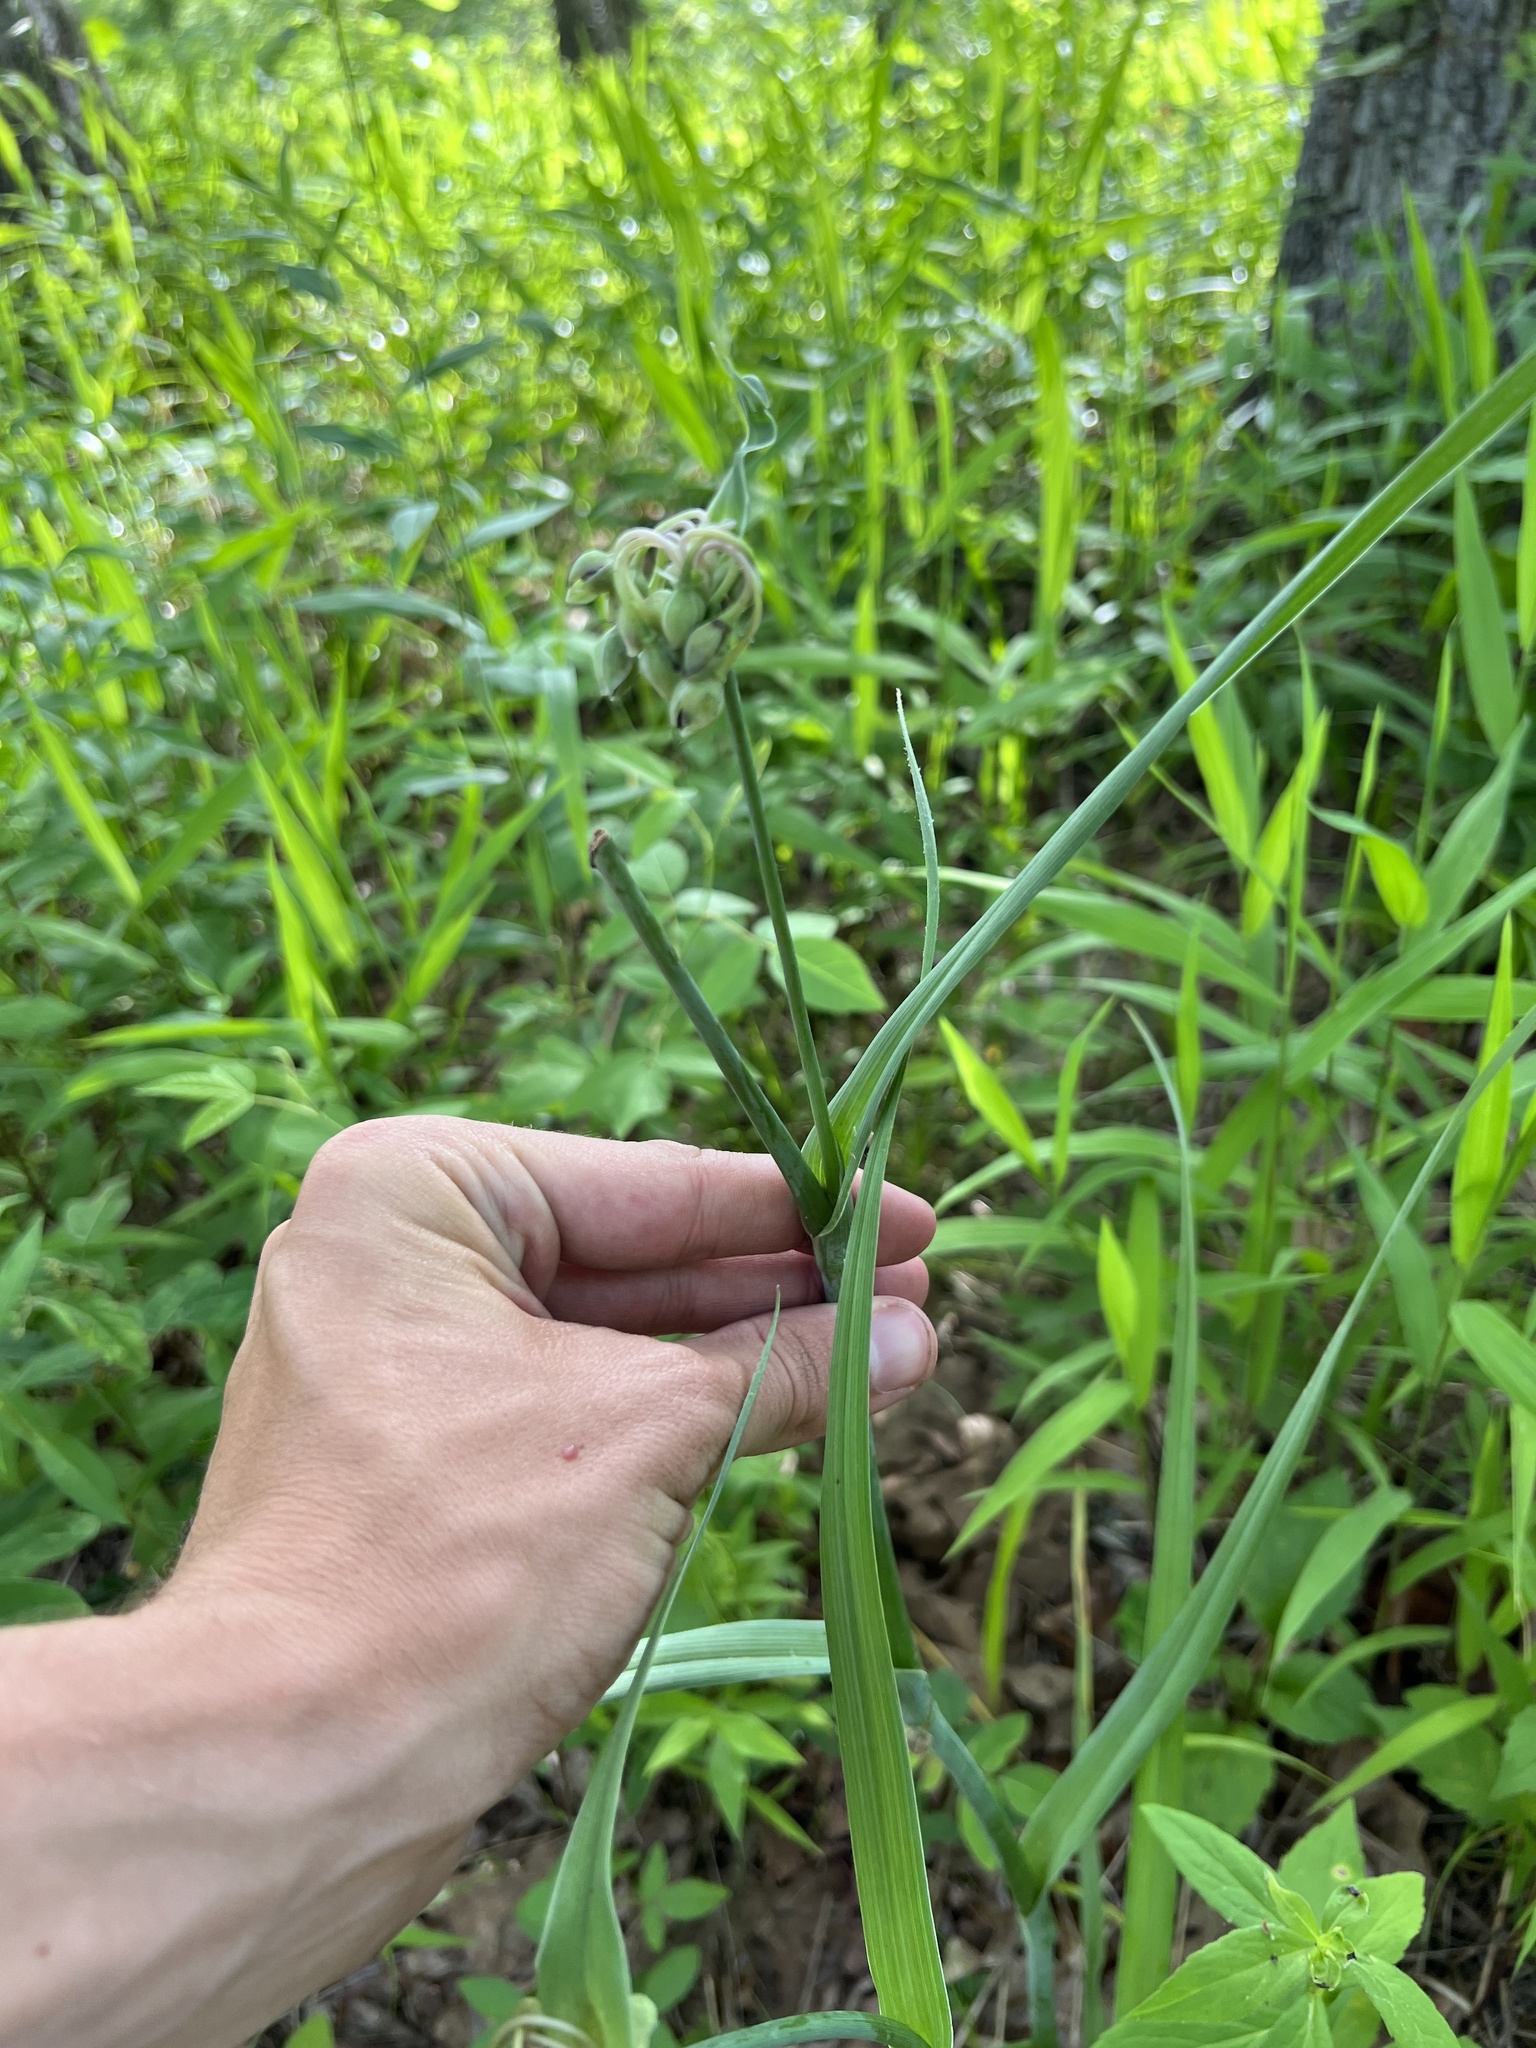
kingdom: Plantae
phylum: Tracheophyta
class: Liliopsida
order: Commelinales
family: Commelinaceae
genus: Tradescantia
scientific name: Tradescantia ohiensis
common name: Ohio spiderwort
